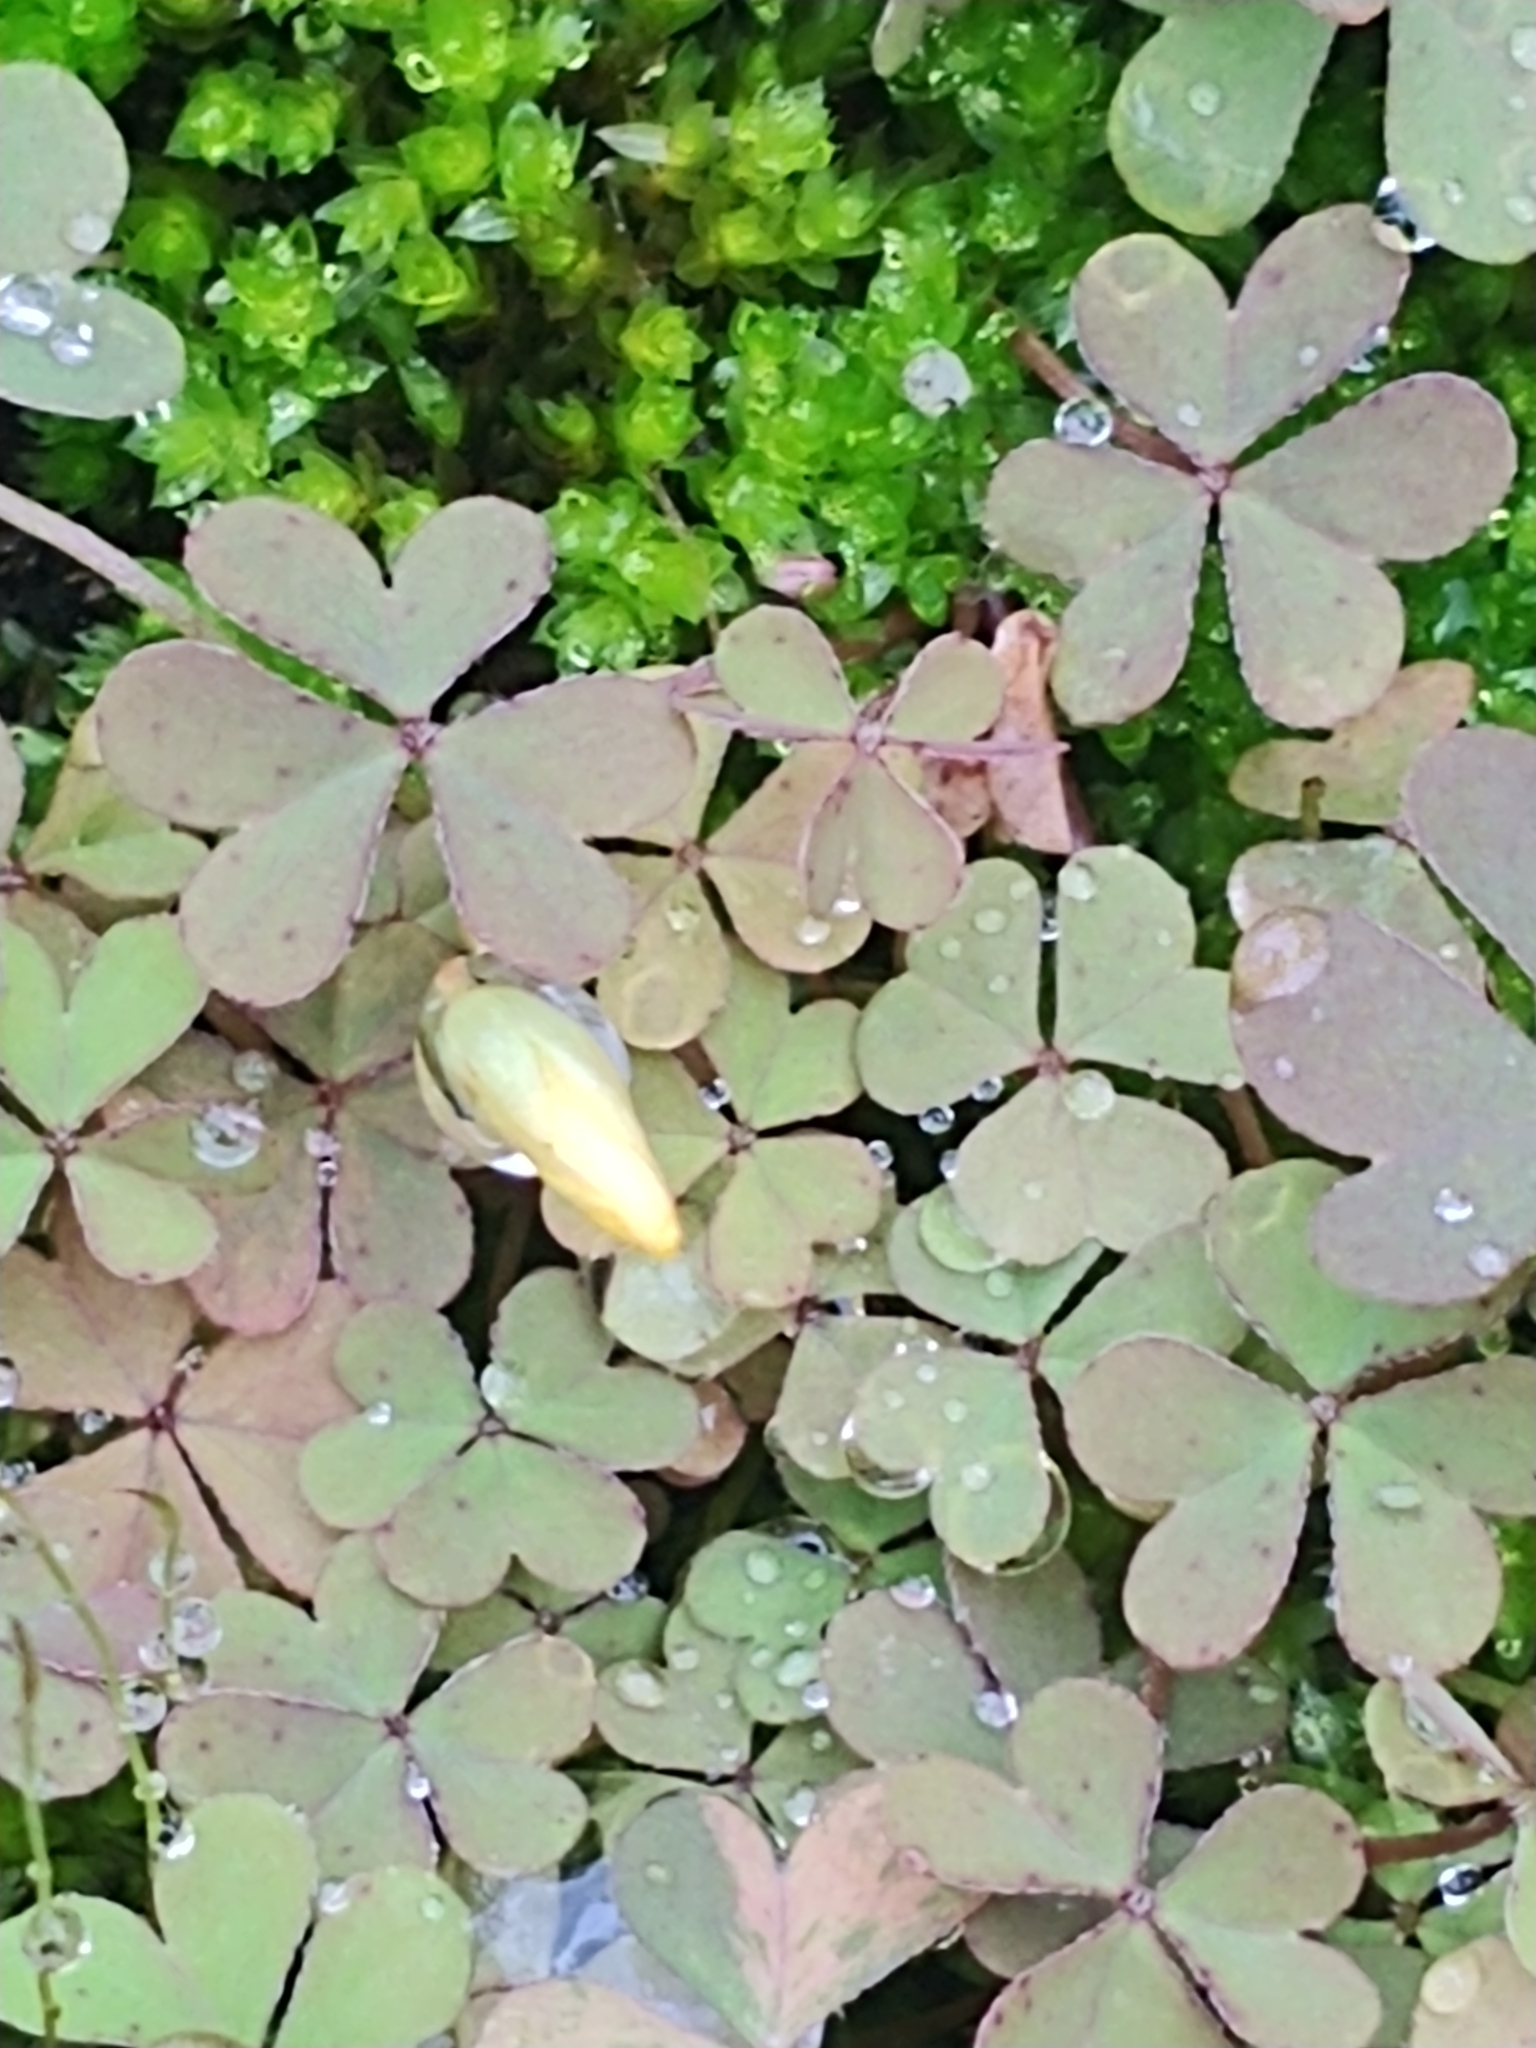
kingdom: Plantae
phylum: Tracheophyta
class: Magnoliopsida
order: Oxalidales
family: Oxalidaceae
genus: Oxalis
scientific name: Oxalis corniculata
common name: Procumbent yellow-sorrel
